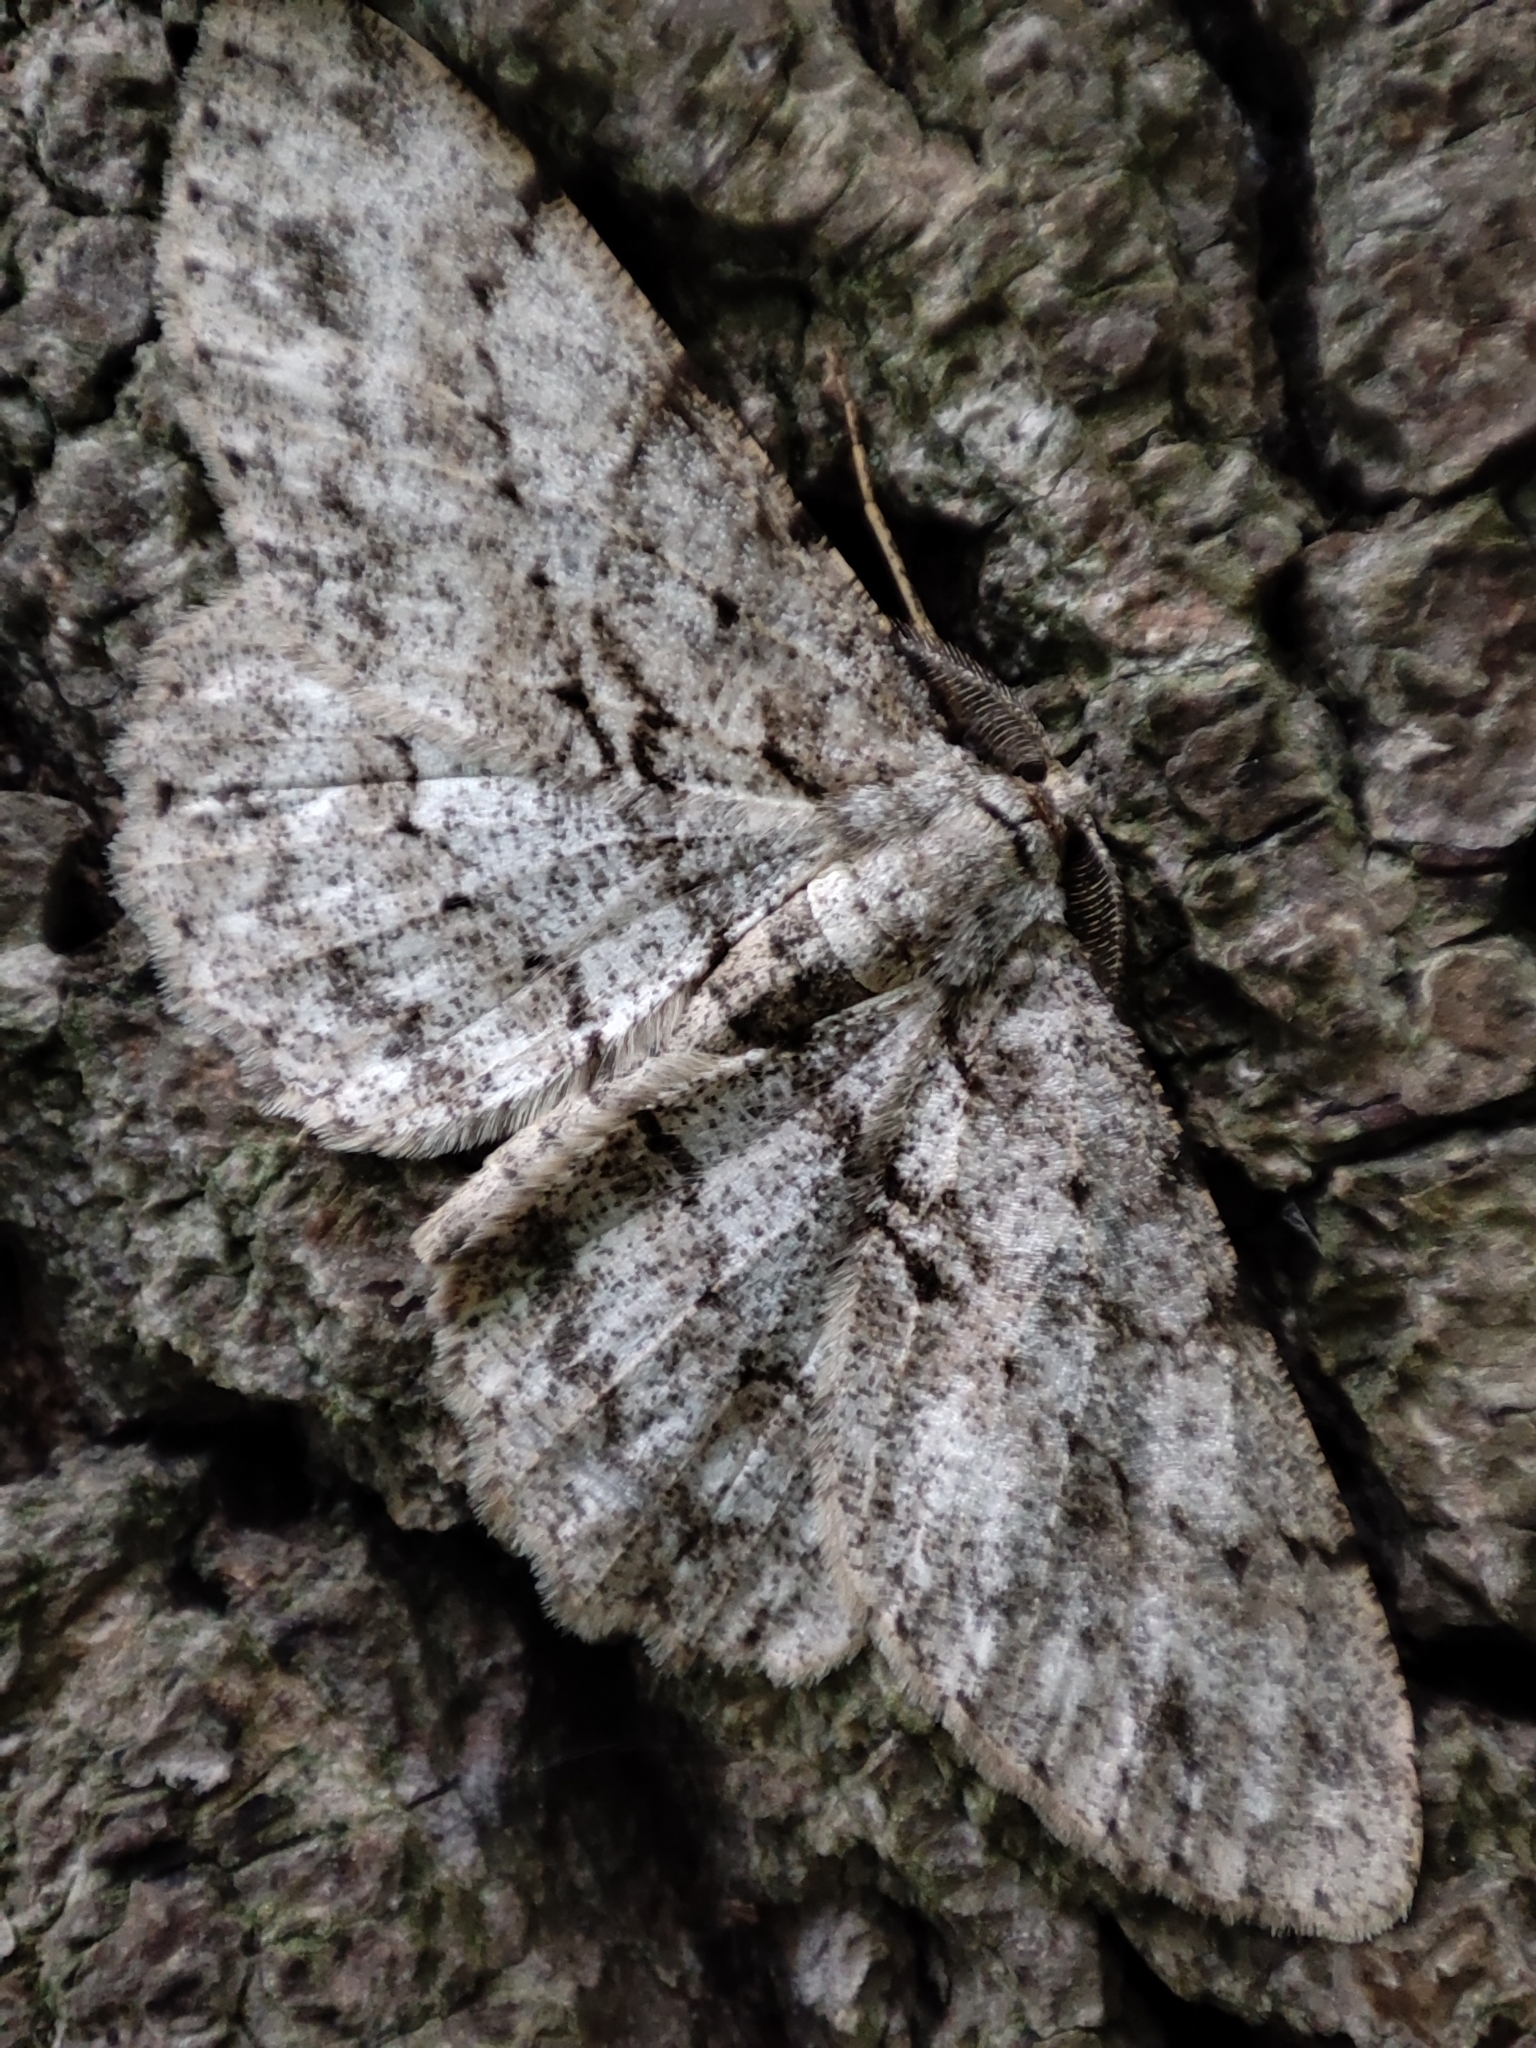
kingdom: Animalia
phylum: Arthropoda
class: Insecta
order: Lepidoptera
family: Geometridae
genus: Hypomecis
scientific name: Hypomecis punctinalis
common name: Pale oak beauty
